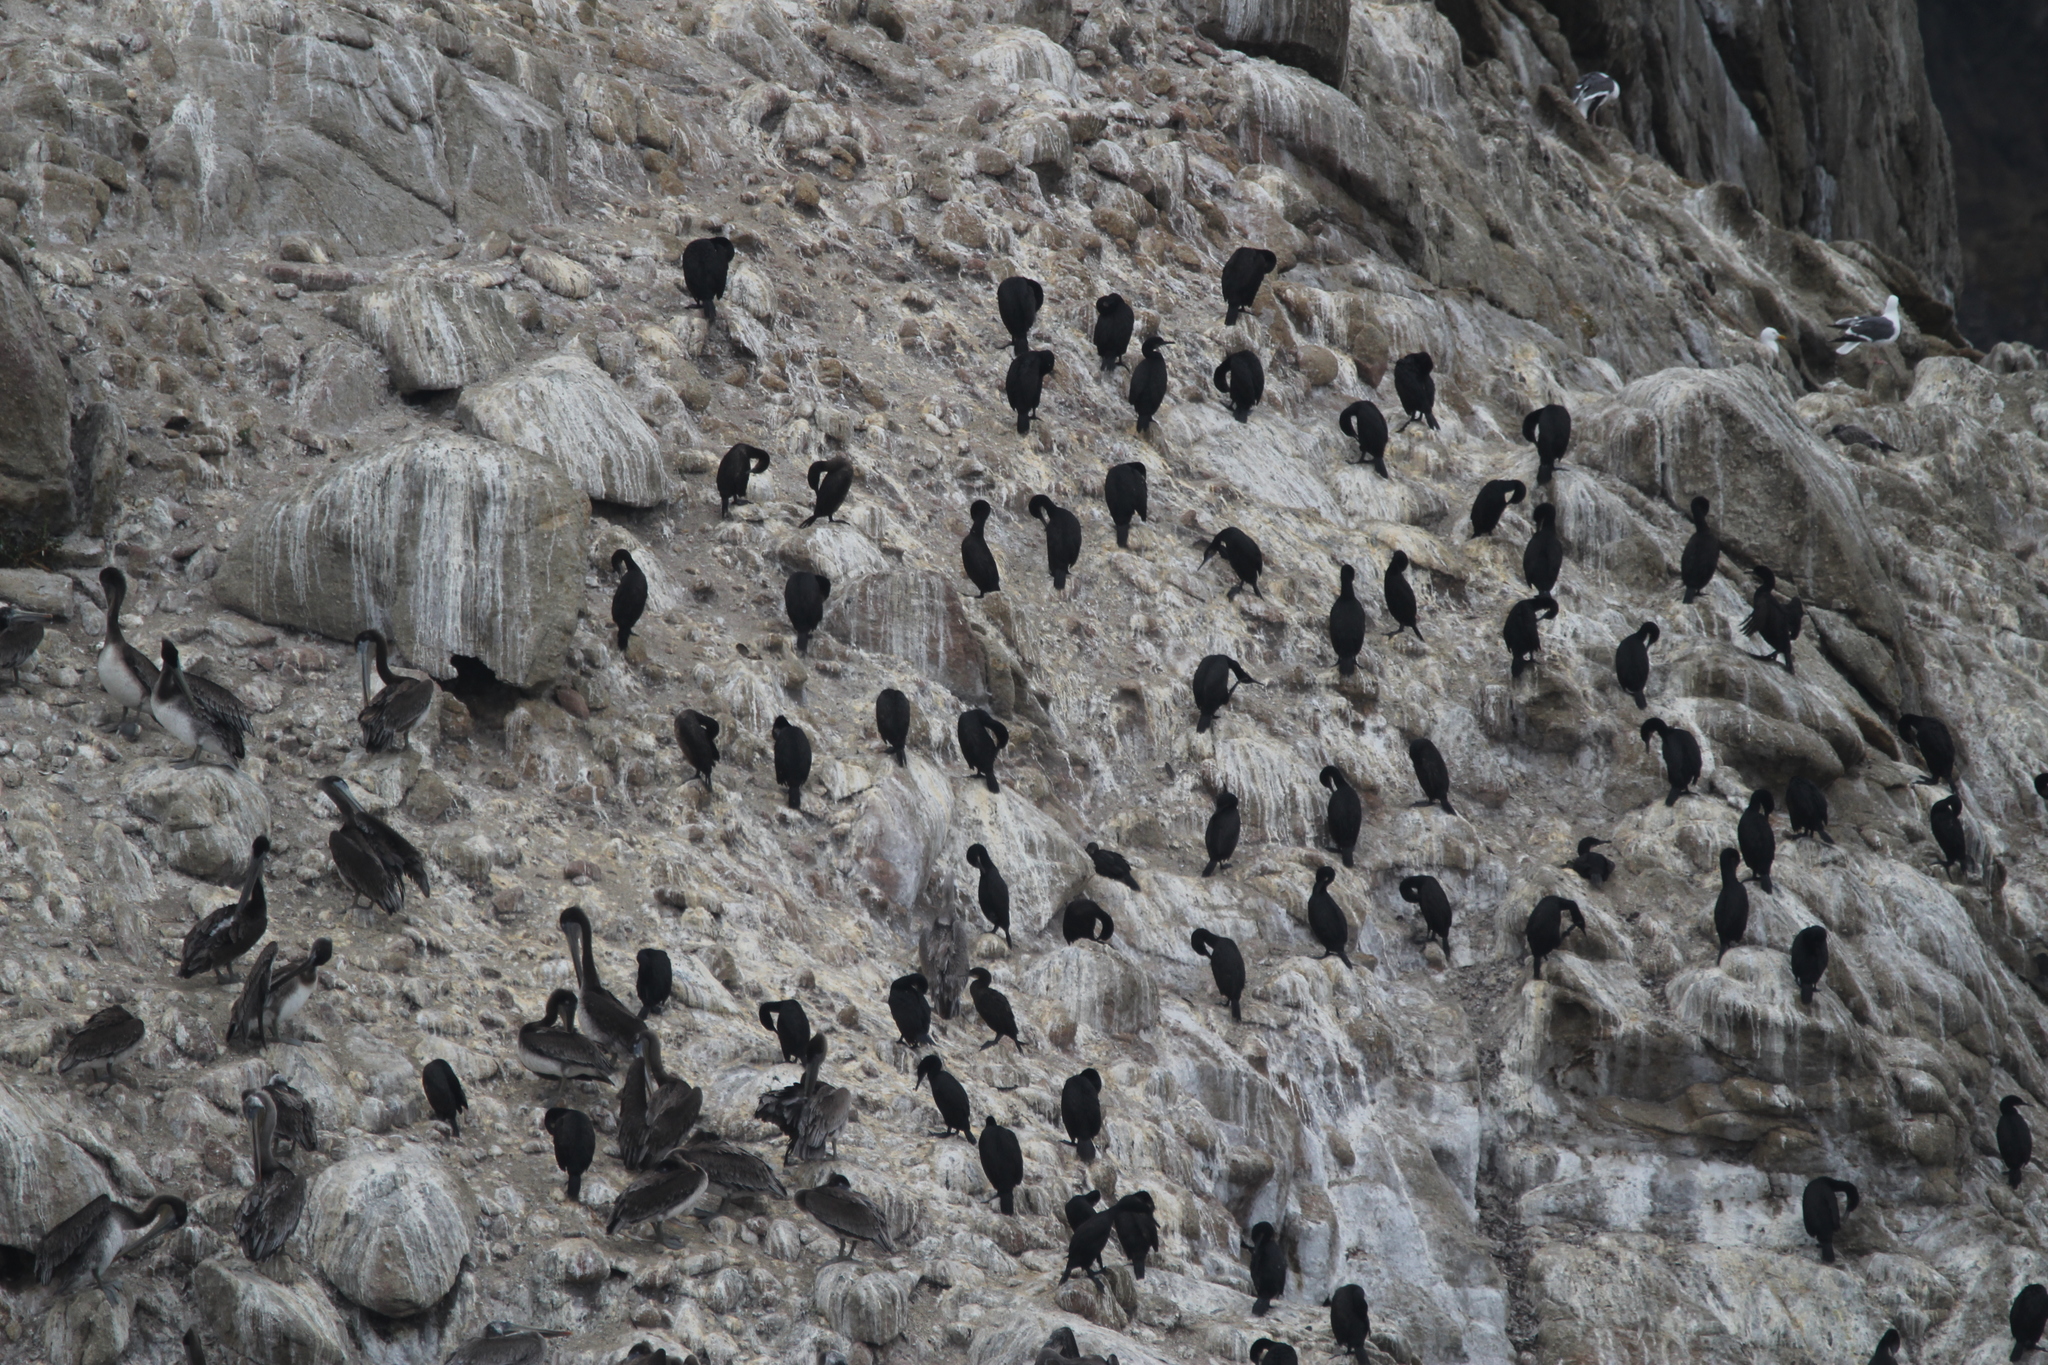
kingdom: Animalia
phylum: Chordata
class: Aves
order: Suliformes
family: Phalacrocoracidae
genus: Urile
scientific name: Urile penicillatus
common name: Brandt's cormorant
